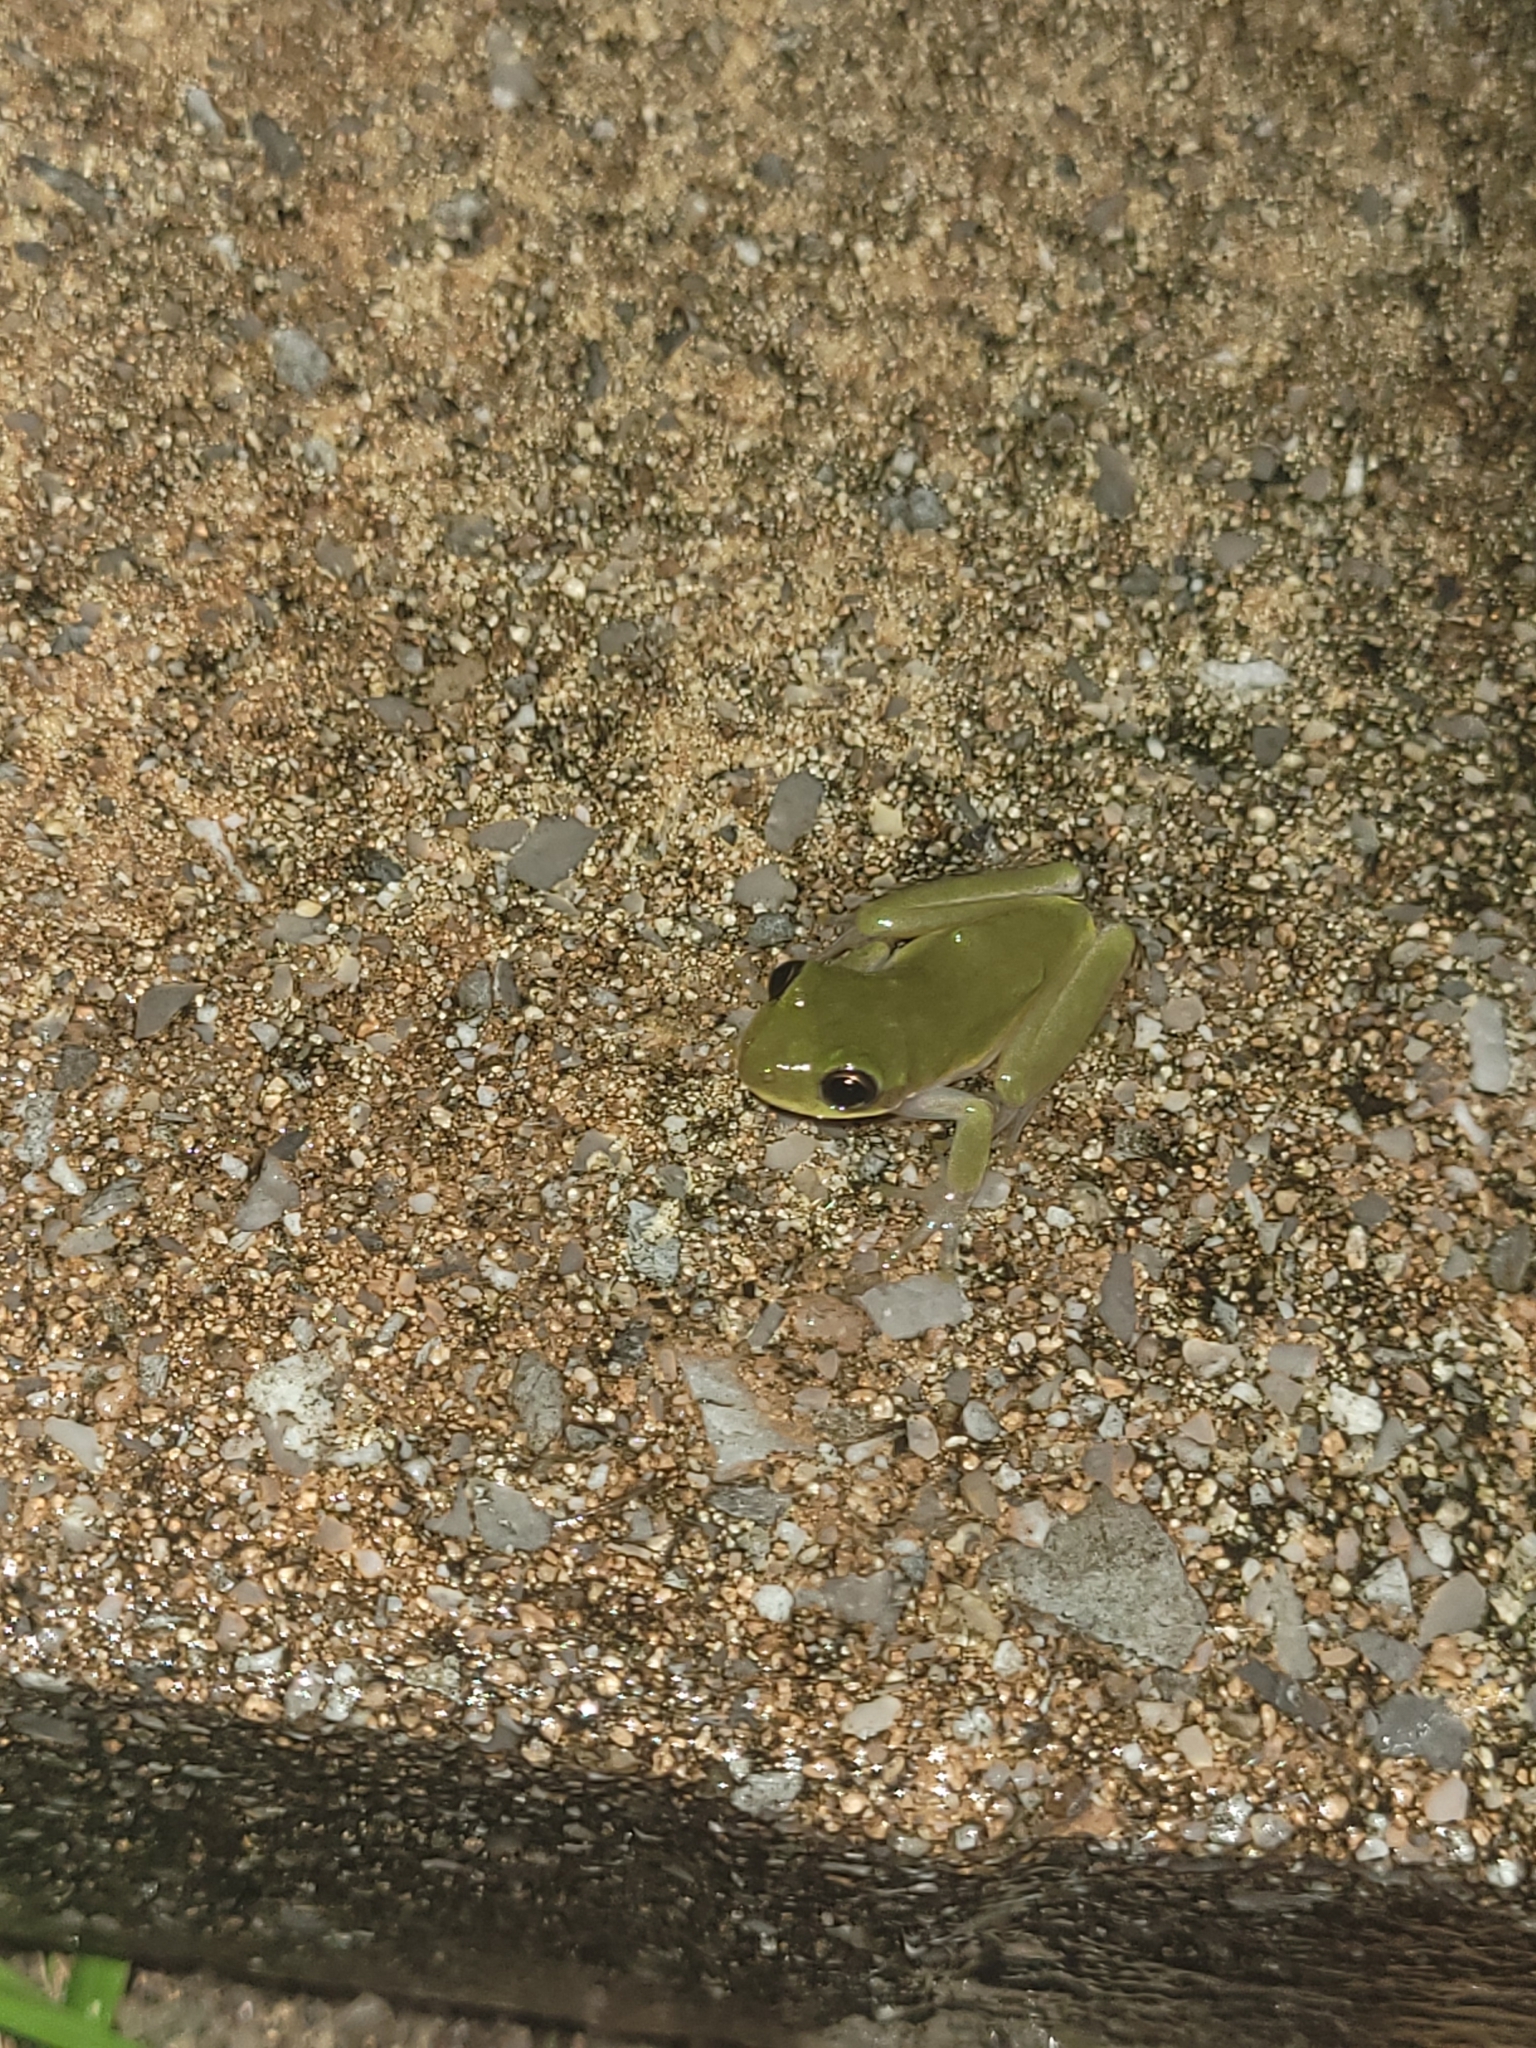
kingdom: Animalia
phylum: Chordata
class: Amphibia
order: Anura
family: Hylidae
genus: Dryophytes
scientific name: Dryophytes squirellus
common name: Squirrel treefrog
